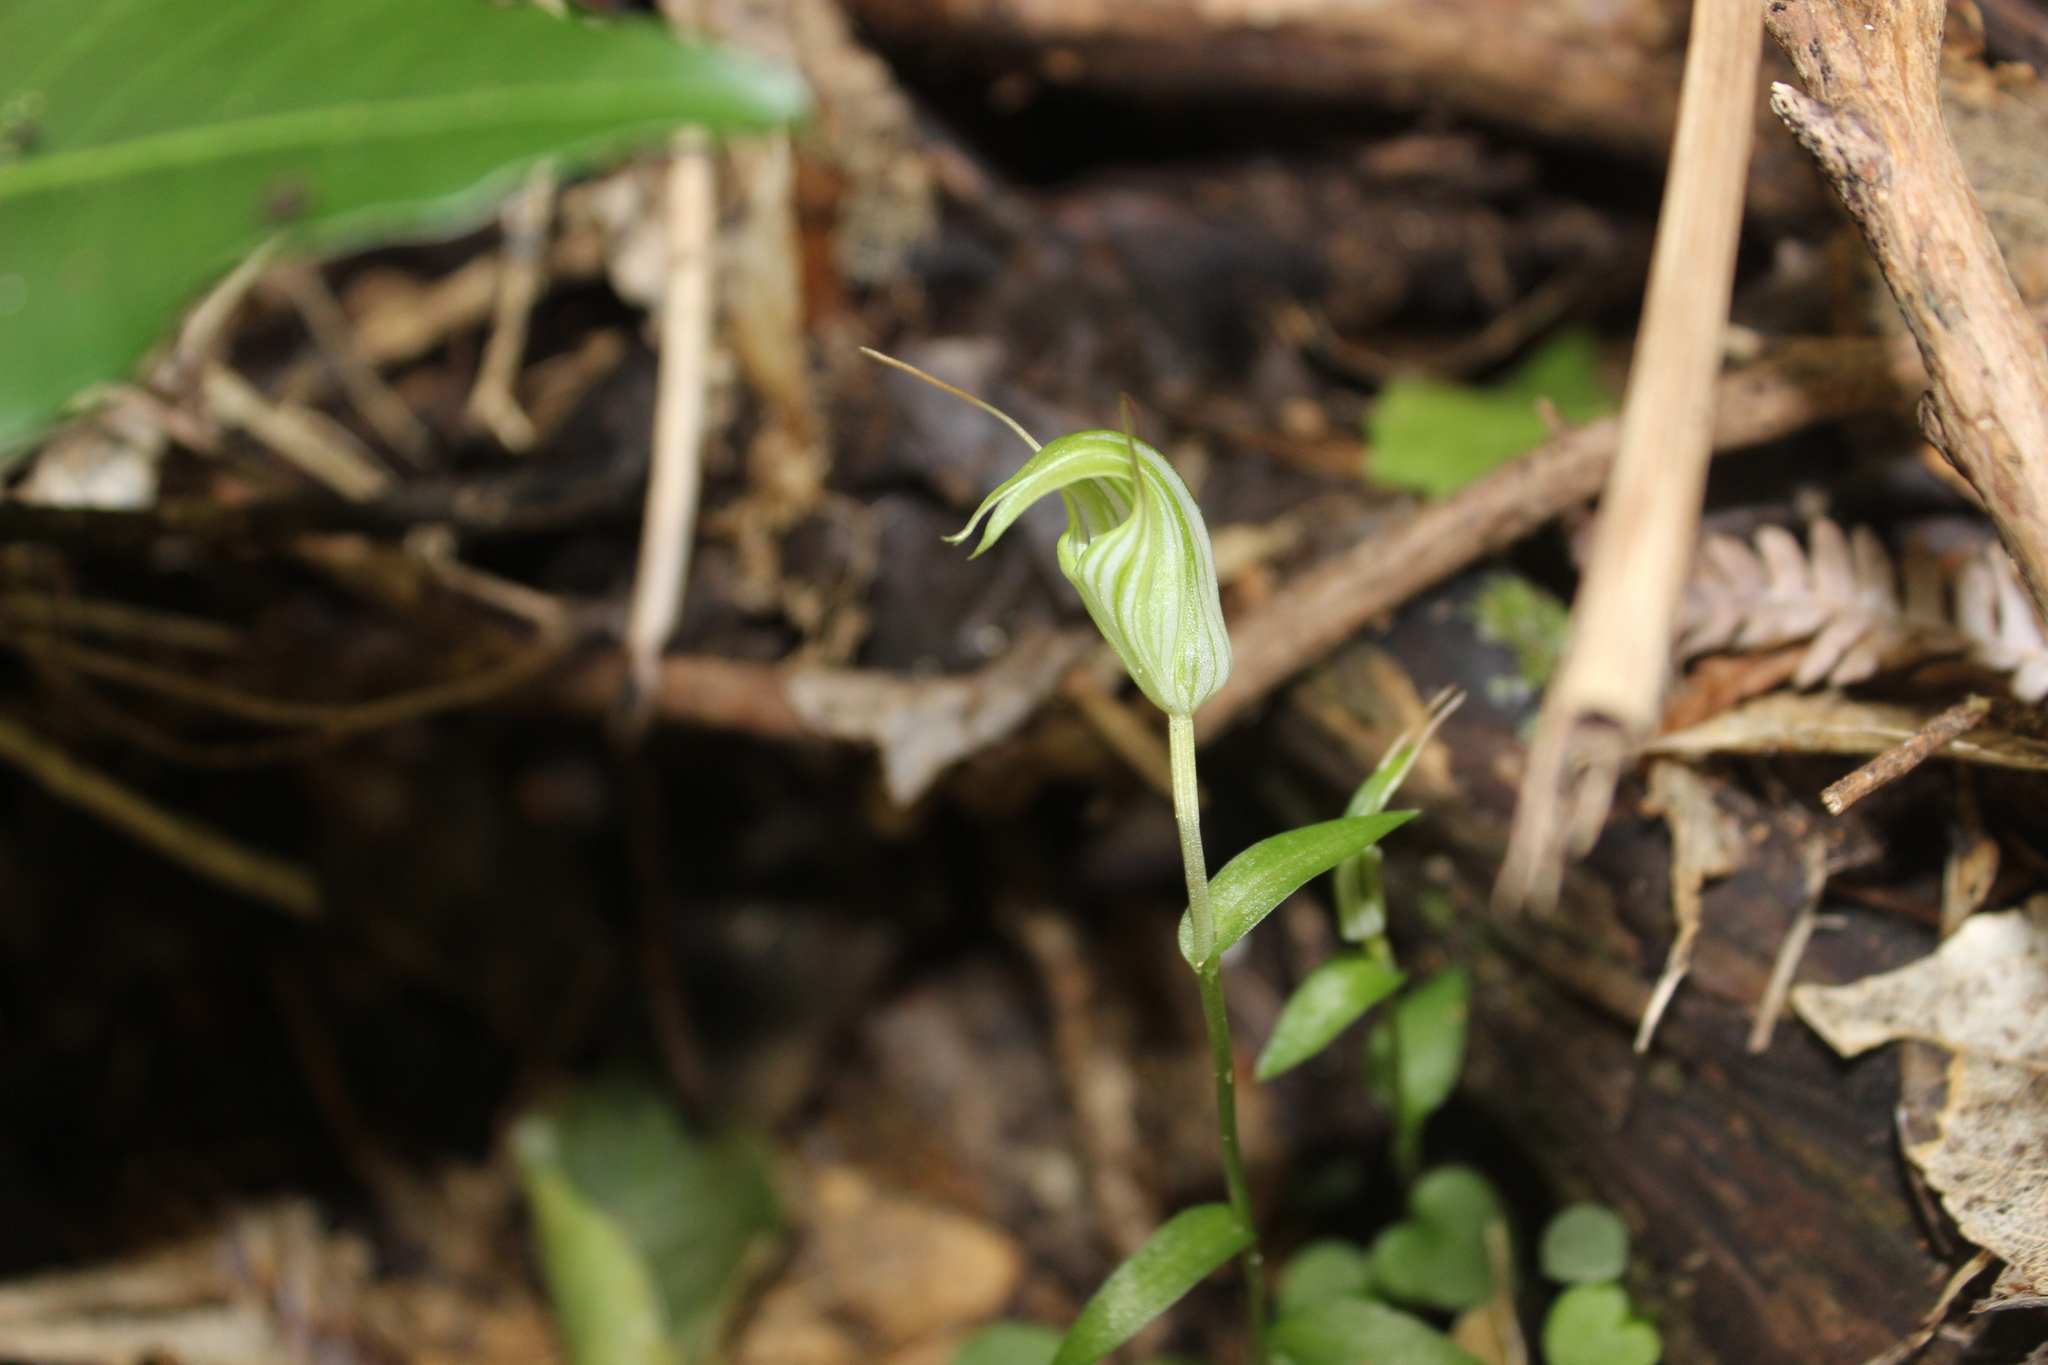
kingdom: Plantae
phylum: Tracheophyta
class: Liliopsida
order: Asparagales
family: Orchidaceae
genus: Pterostylis
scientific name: Pterostylis alobula
